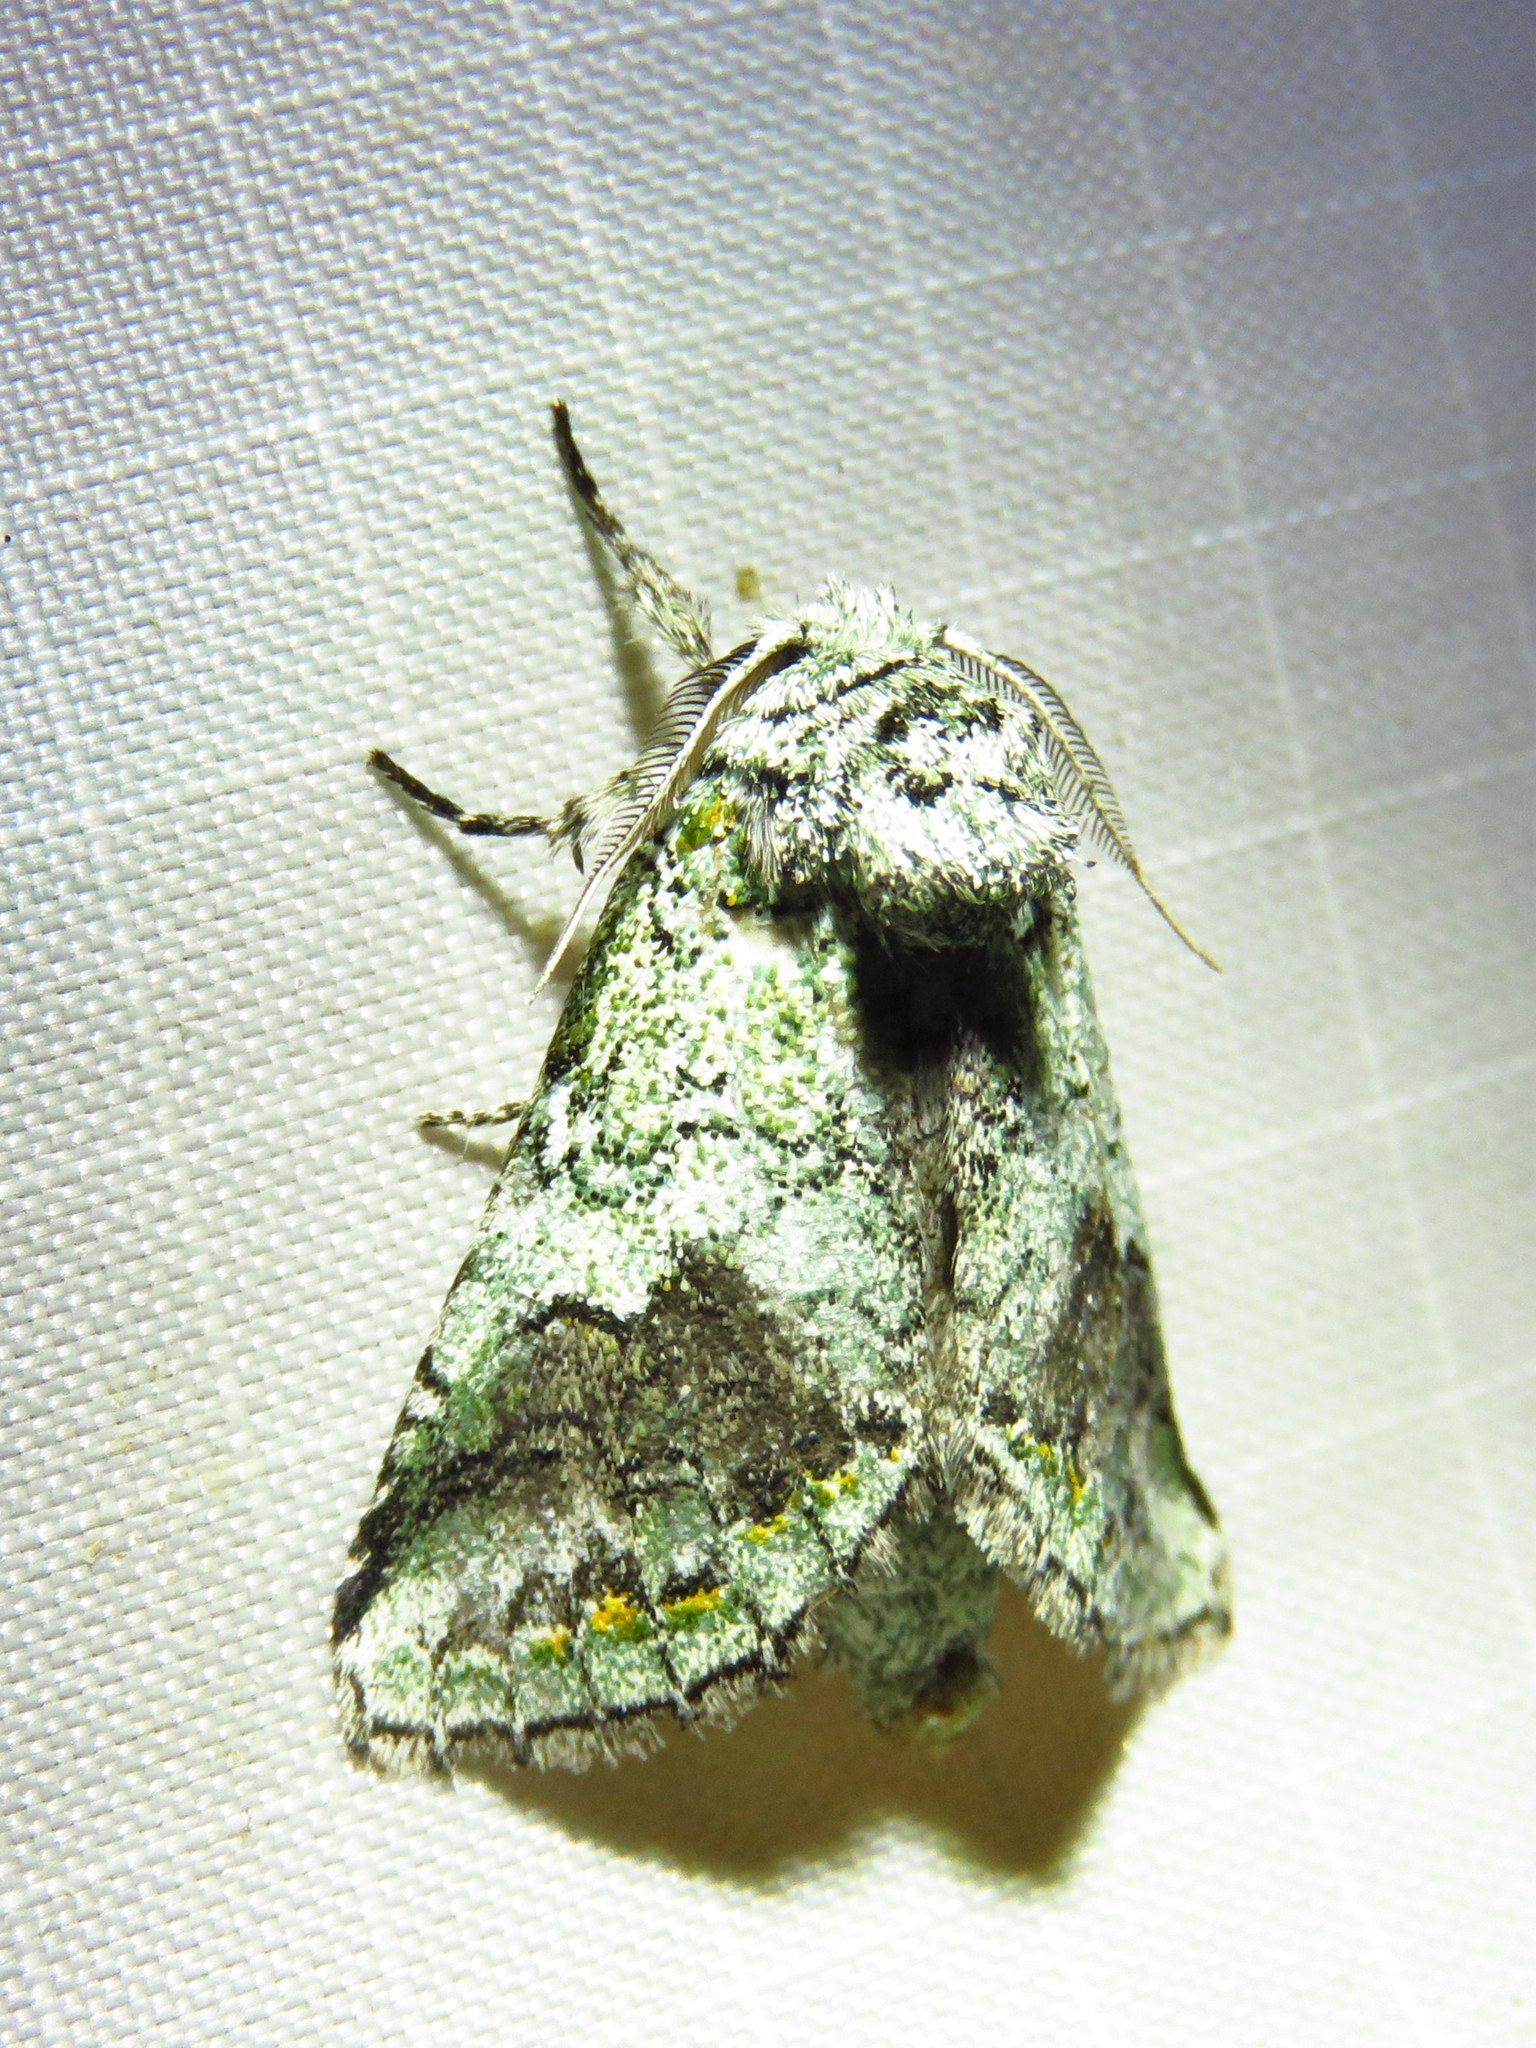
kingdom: Animalia
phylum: Arthropoda
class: Insecta
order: Lepidoptera
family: Notodontidae
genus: Litodonta
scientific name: Litodonta hydromeli
